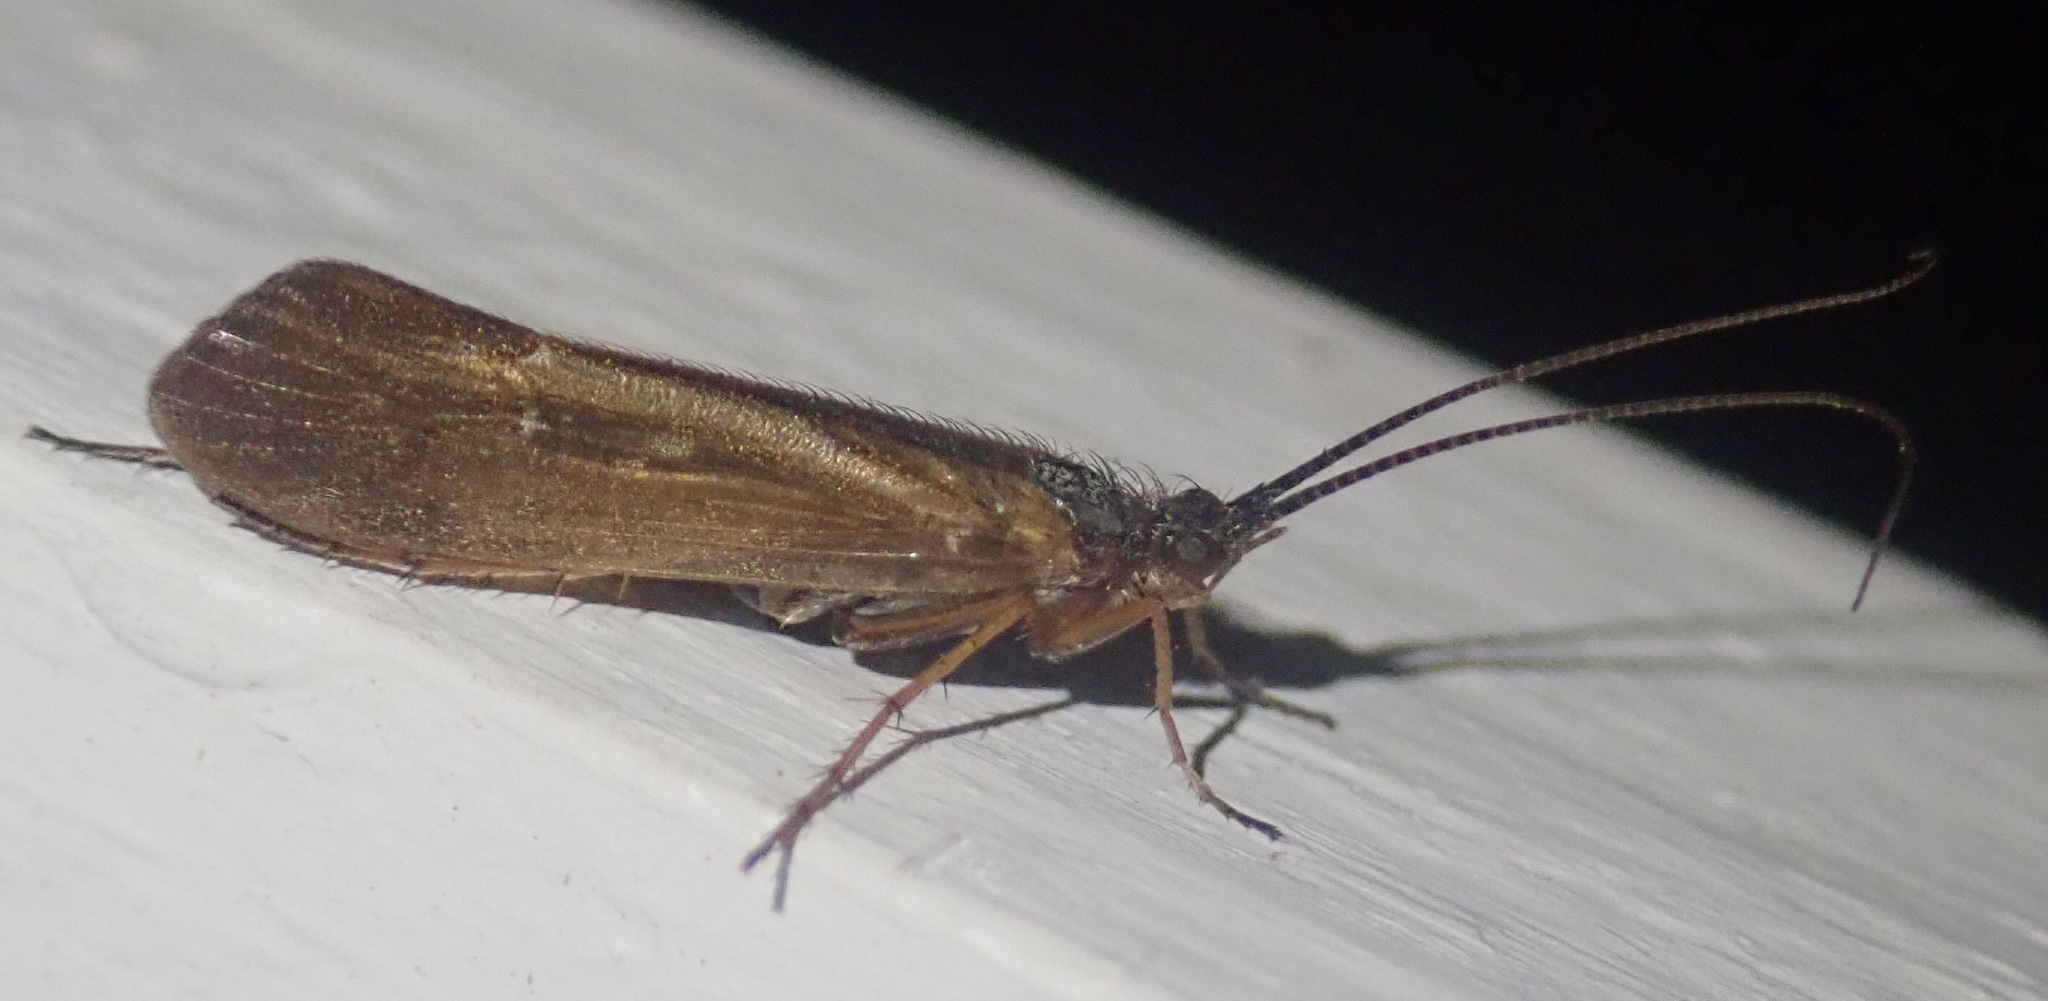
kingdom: Animalia
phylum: Arthropoda
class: Insecta
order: Trichoptera
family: Limnephilidae
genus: Limnephilus
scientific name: Limnephilus auricula
